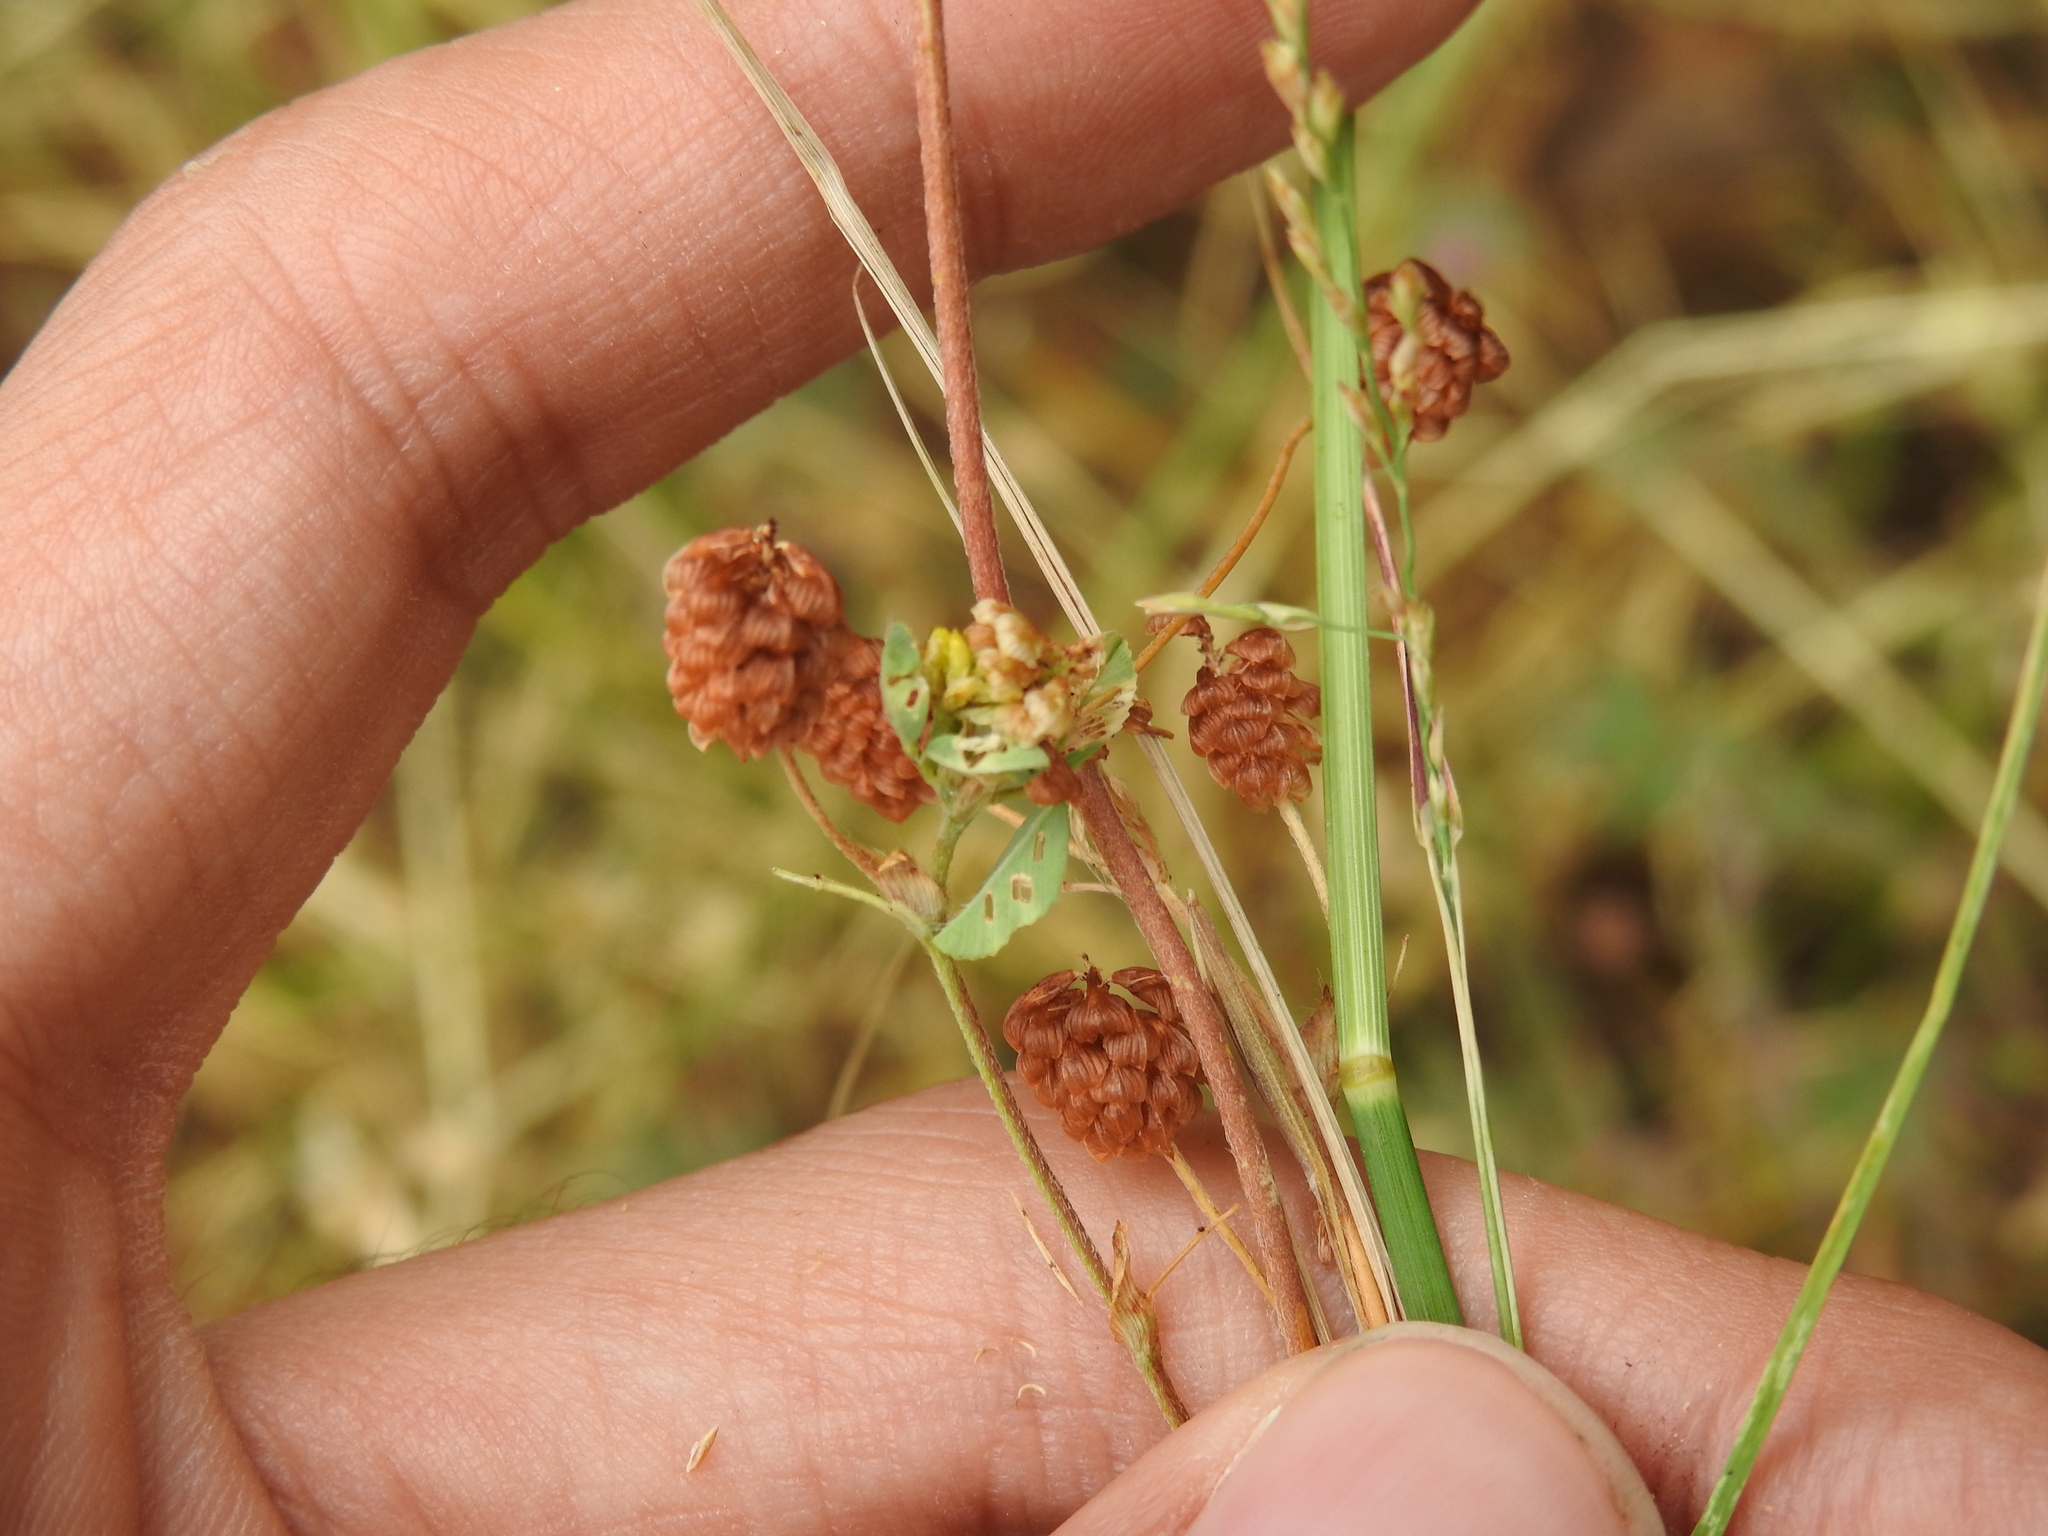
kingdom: Plantae
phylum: Tracheophyta
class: Magnoliopsida
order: Fabales
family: Fabaceae
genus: Trifolium
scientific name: Trifolium campestre
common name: Field clover
